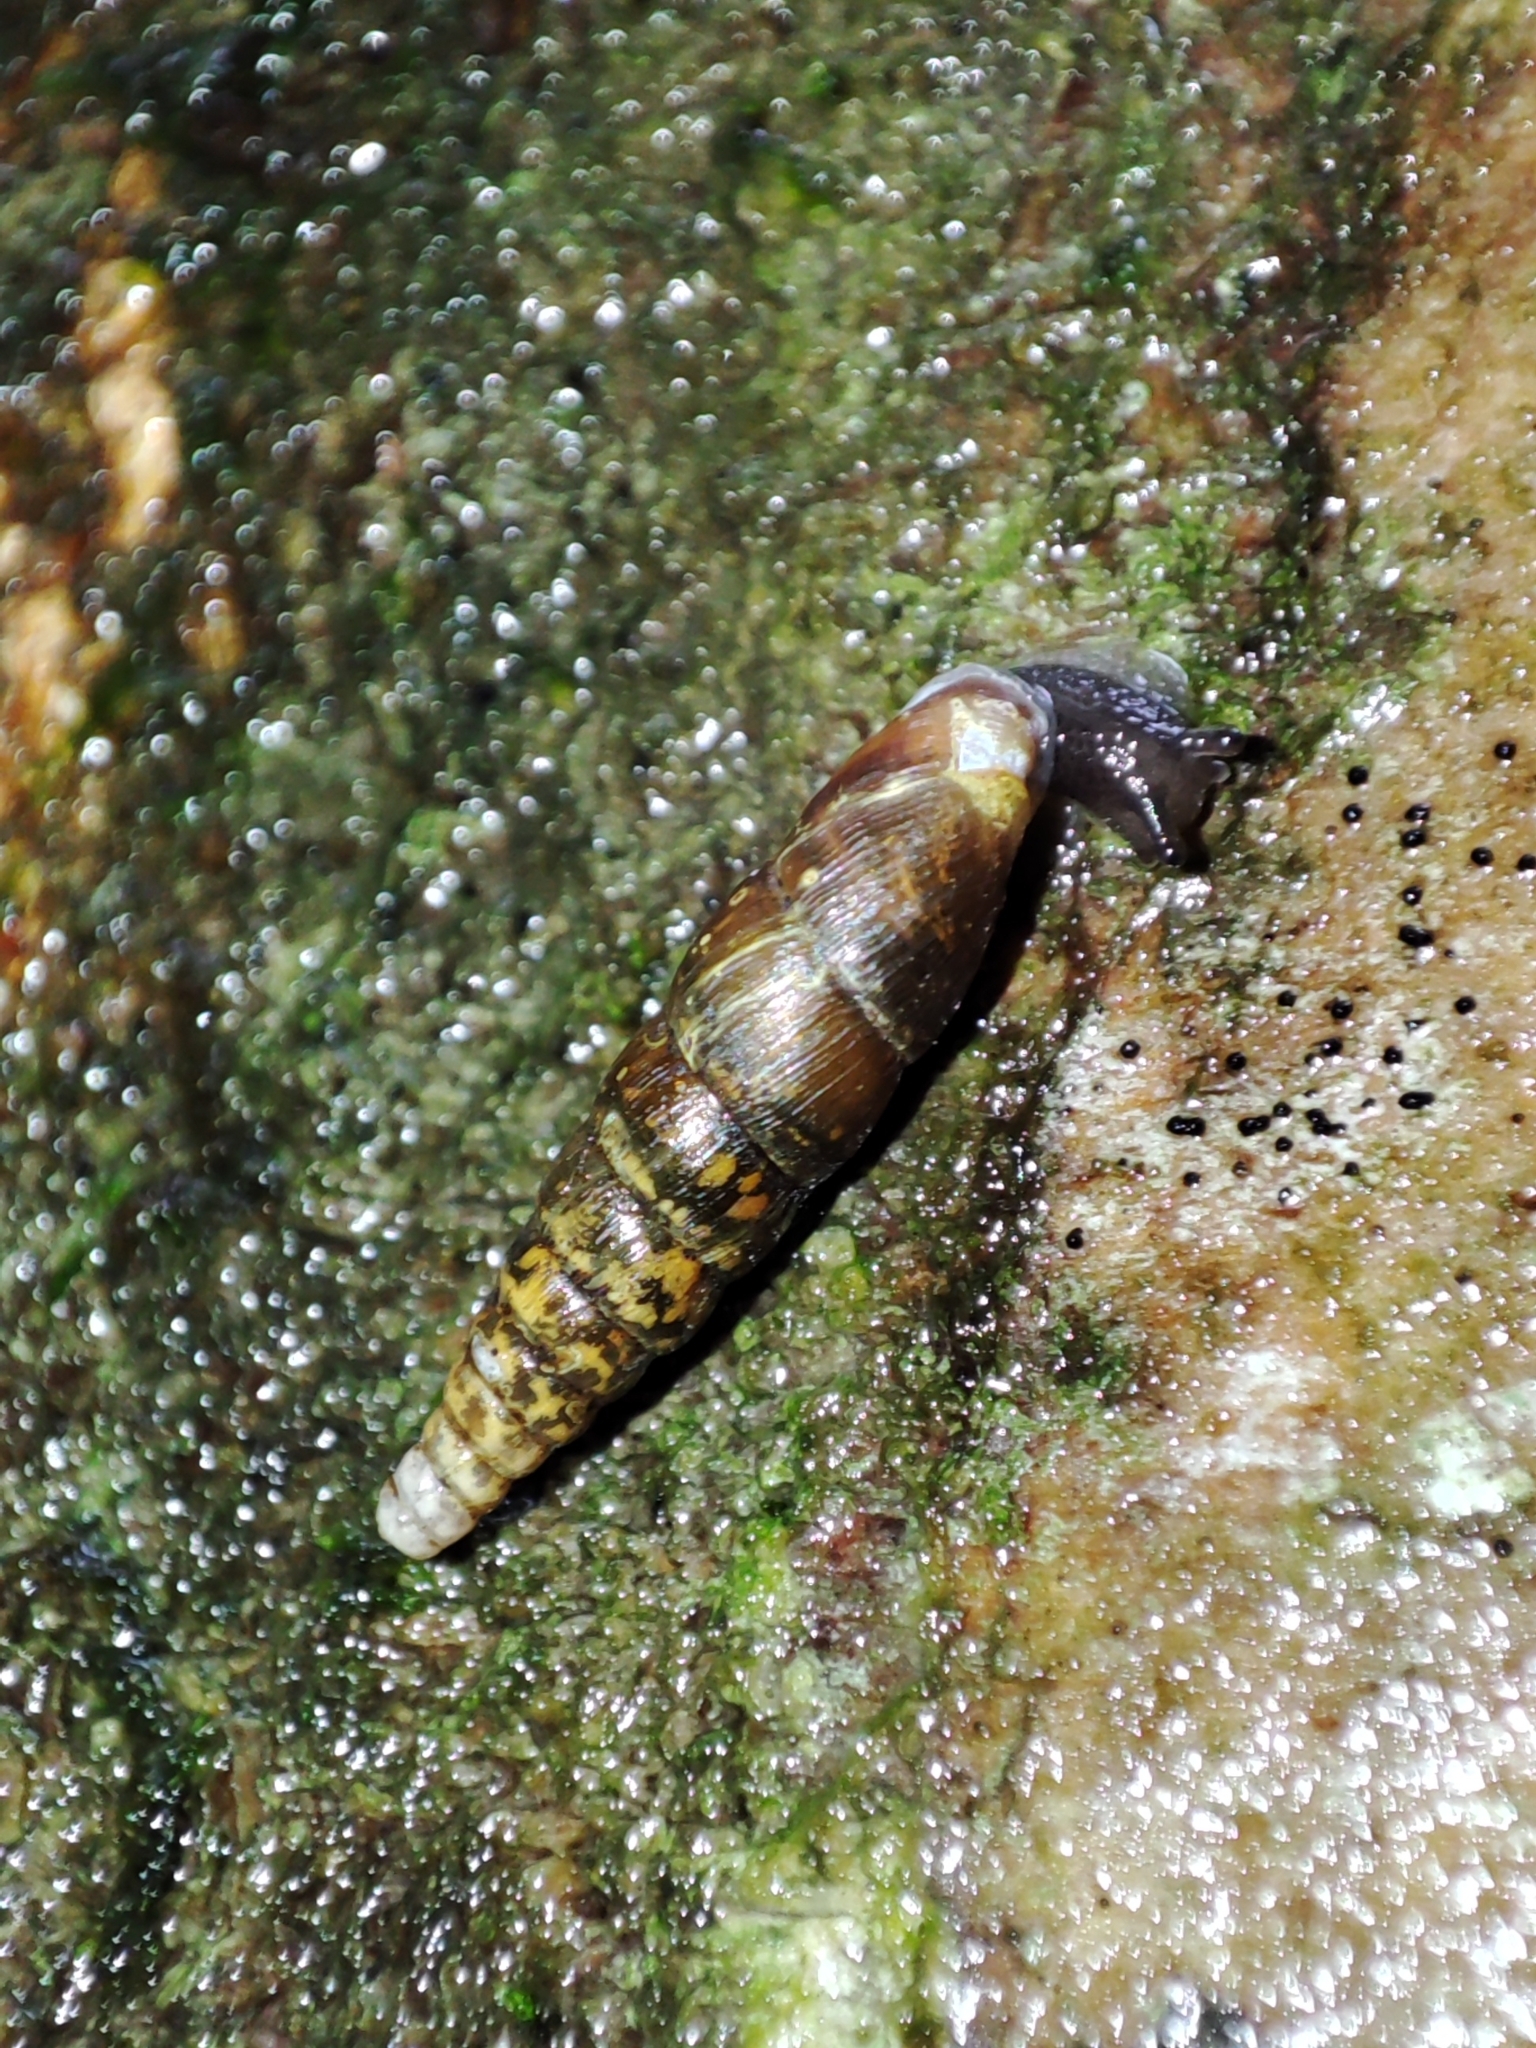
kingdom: Animalia
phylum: Mollusca
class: Gastropoda
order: Stylommatophora
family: Clausiliidae
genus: Cochlodina
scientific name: Cochlodina orthostoma
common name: Straightmouth door snail
